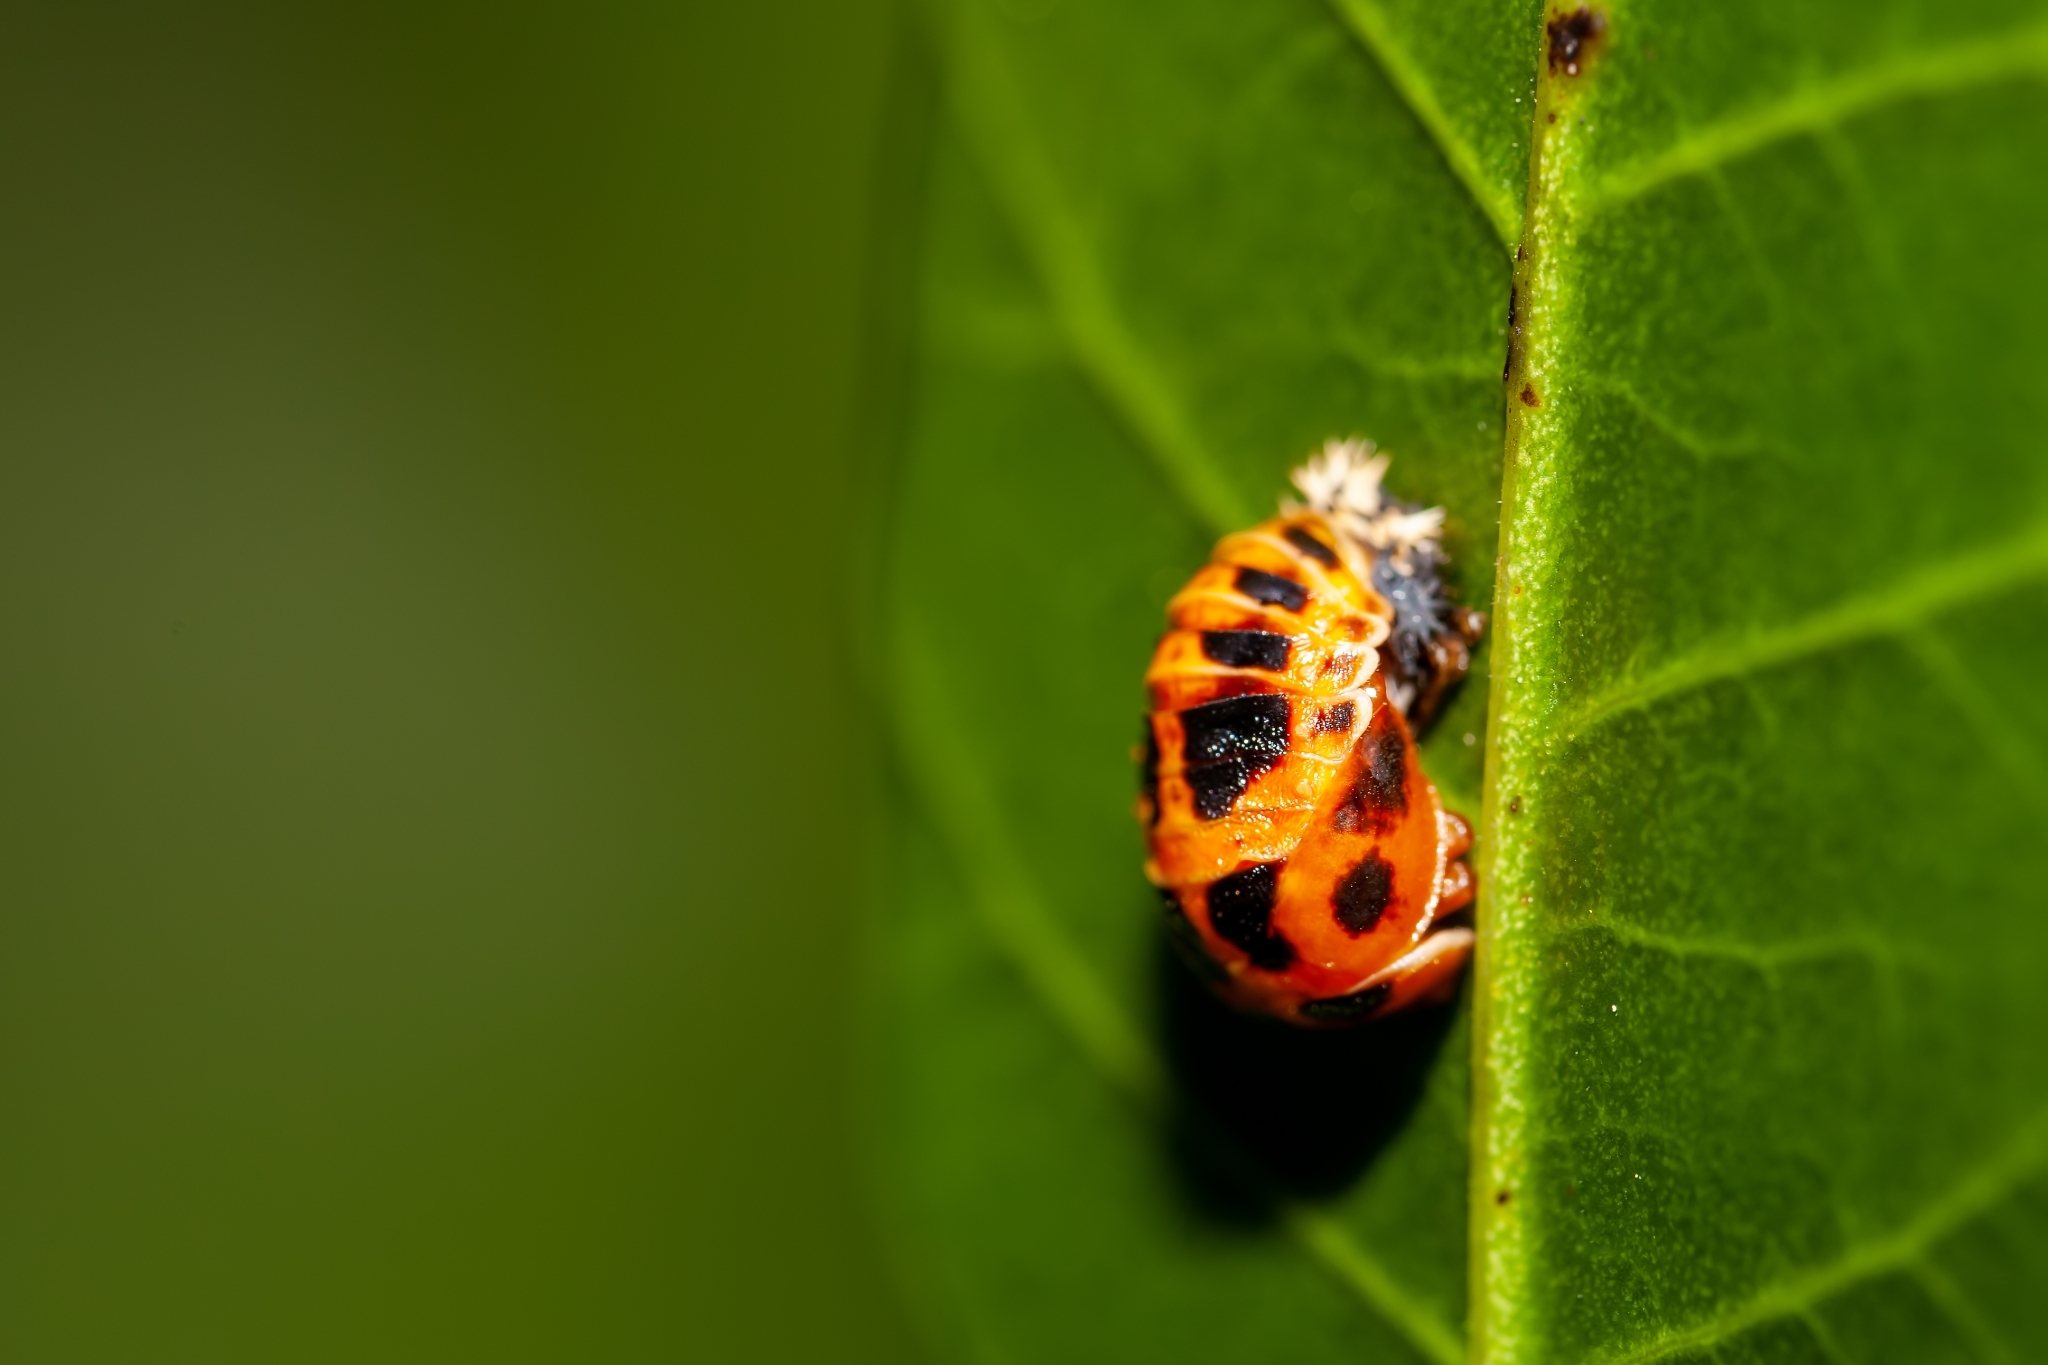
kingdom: Animalia
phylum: Arthropoda
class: Insecta
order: Coleoptera
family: Coccinellidae
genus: Harmonia
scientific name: Harmonia axyridis
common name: Harlequin ladybird
